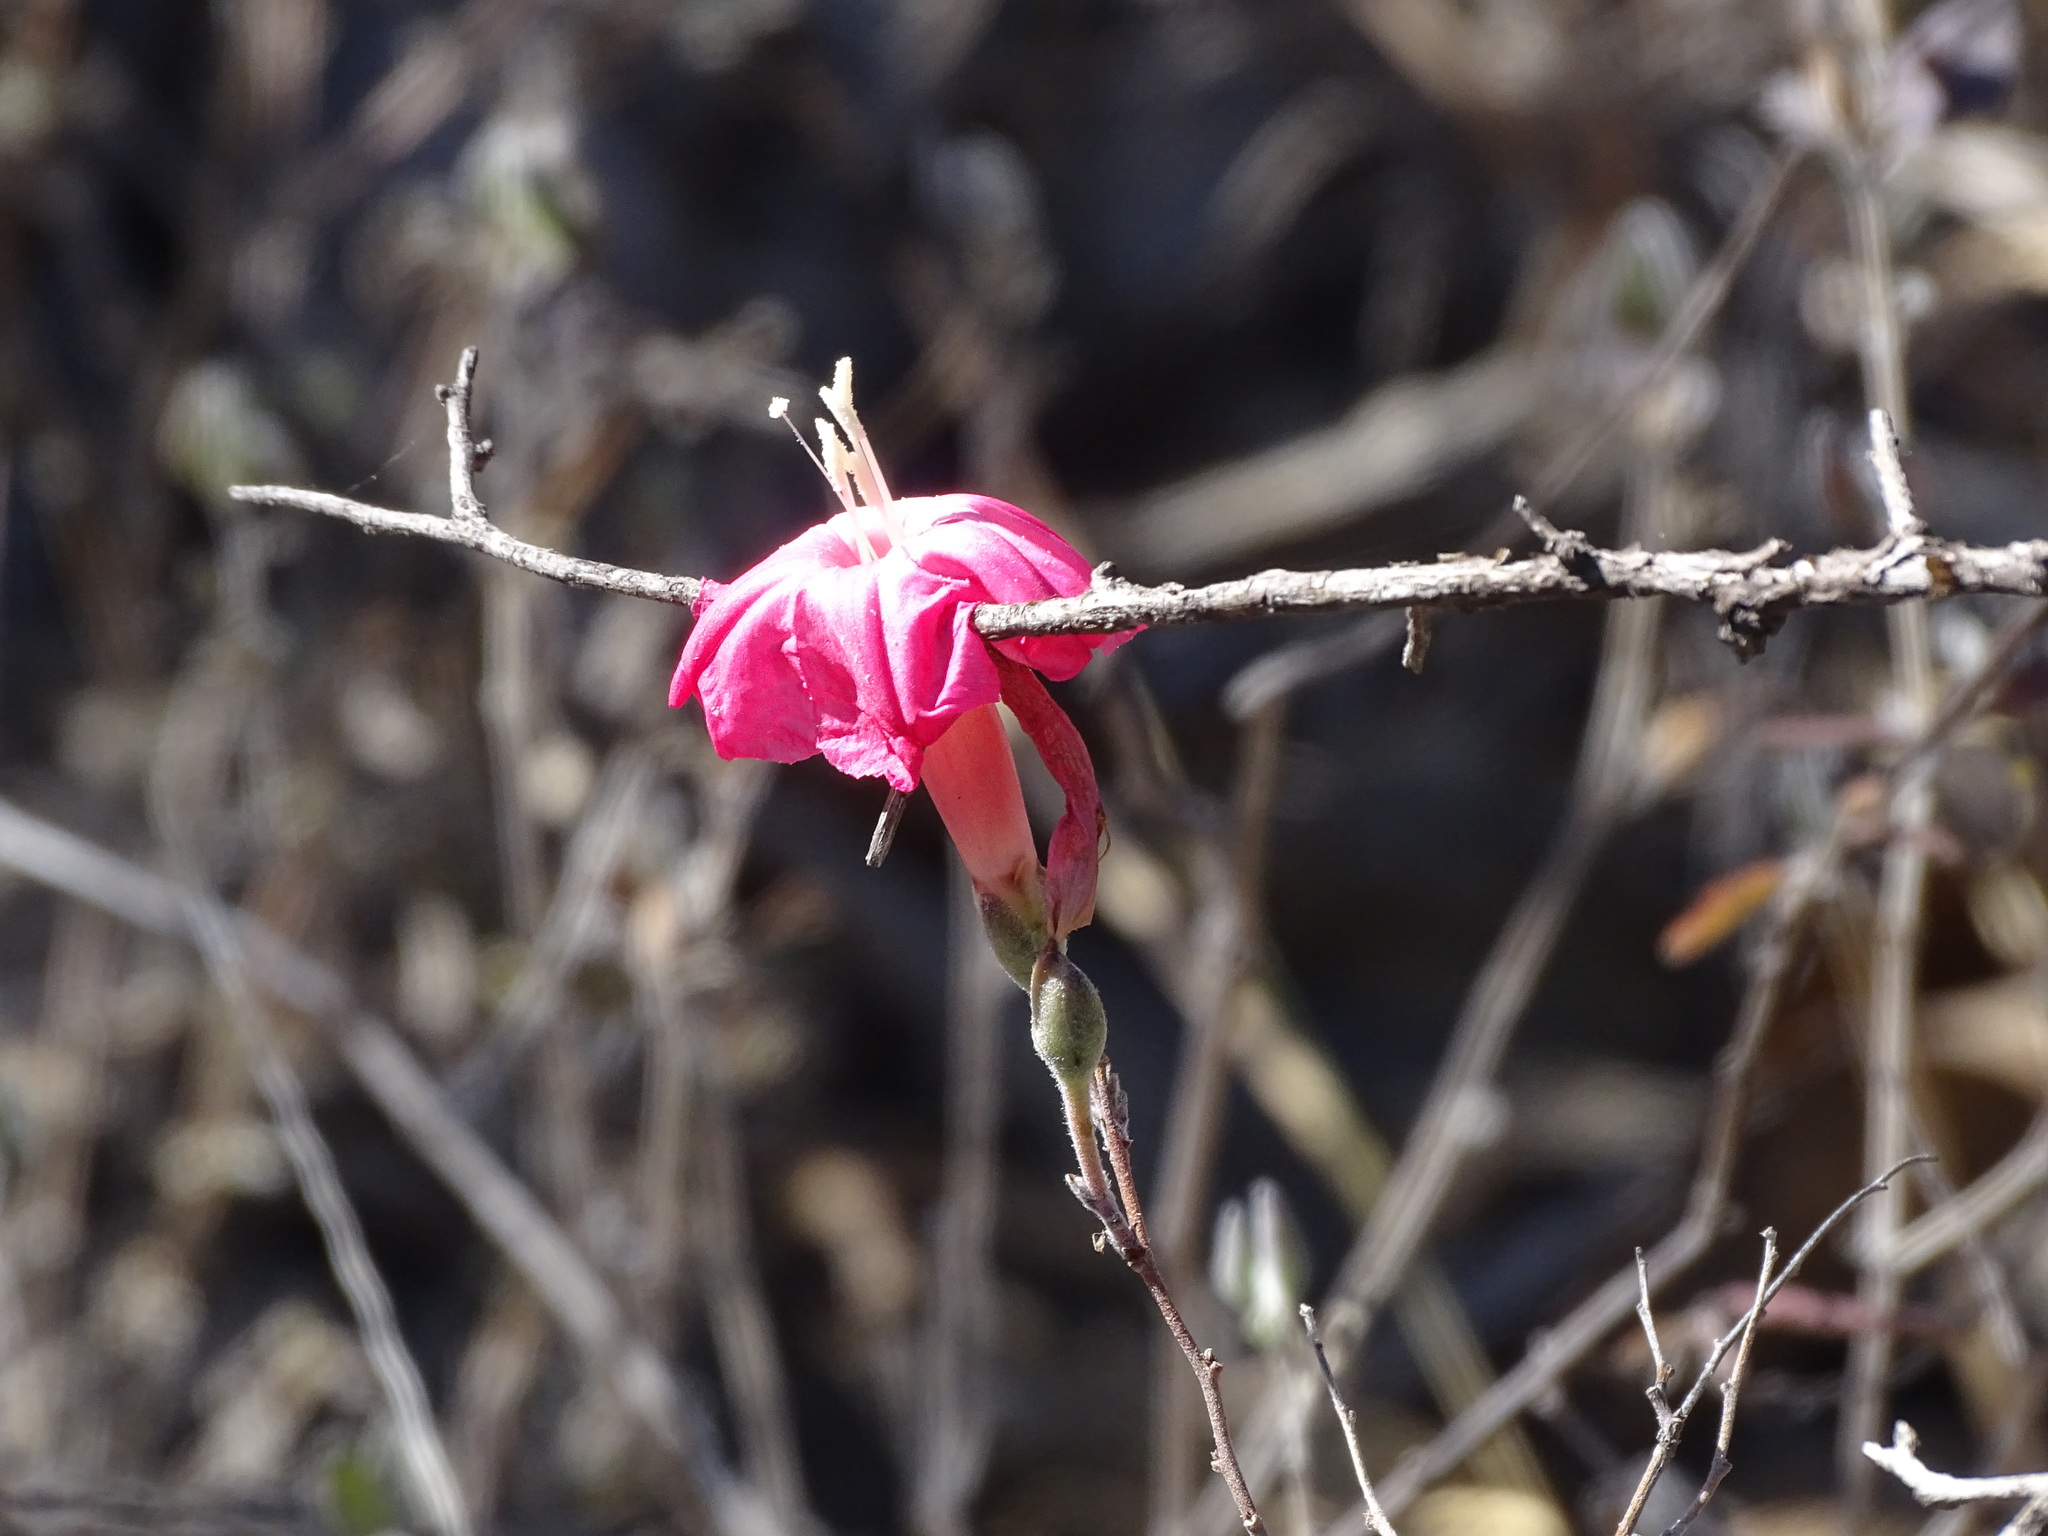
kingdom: Plantae
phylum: Tracheophyta
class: Magnoliopsida
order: Solanales
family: Convolvulaceae
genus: Ipomoea
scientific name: Ipomoea conzattii
